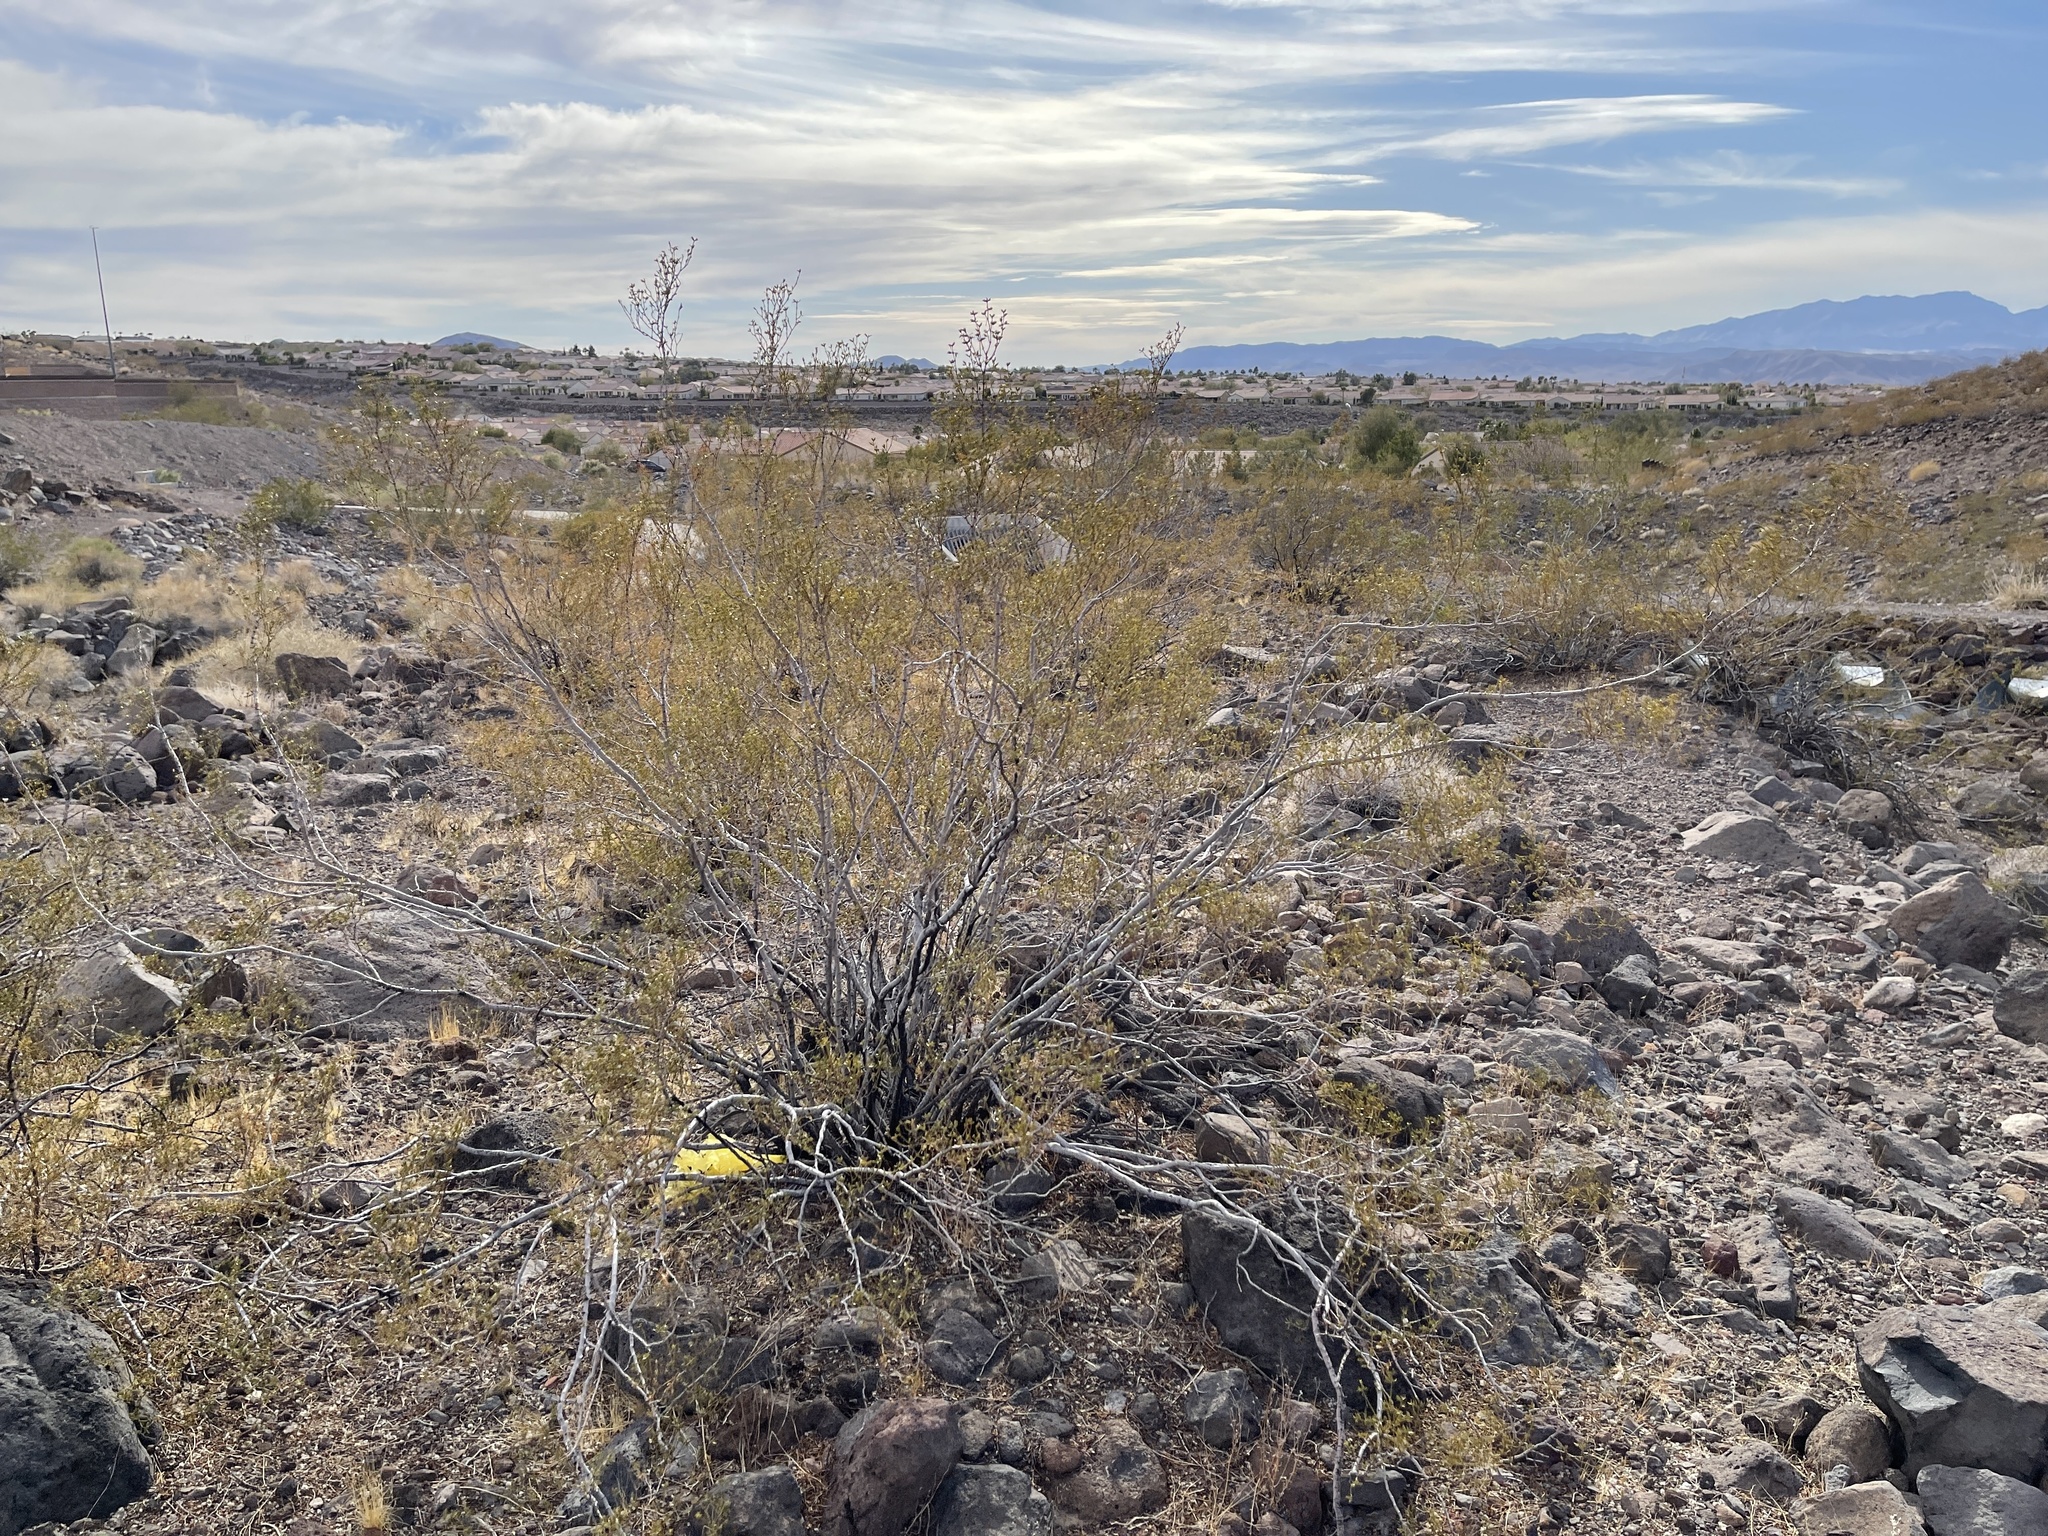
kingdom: Plantae
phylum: Tracheophyta
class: Magnoliopsida
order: Zygophyllales
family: Zygophyllaceae
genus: Larrea
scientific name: Larrea tridentata
